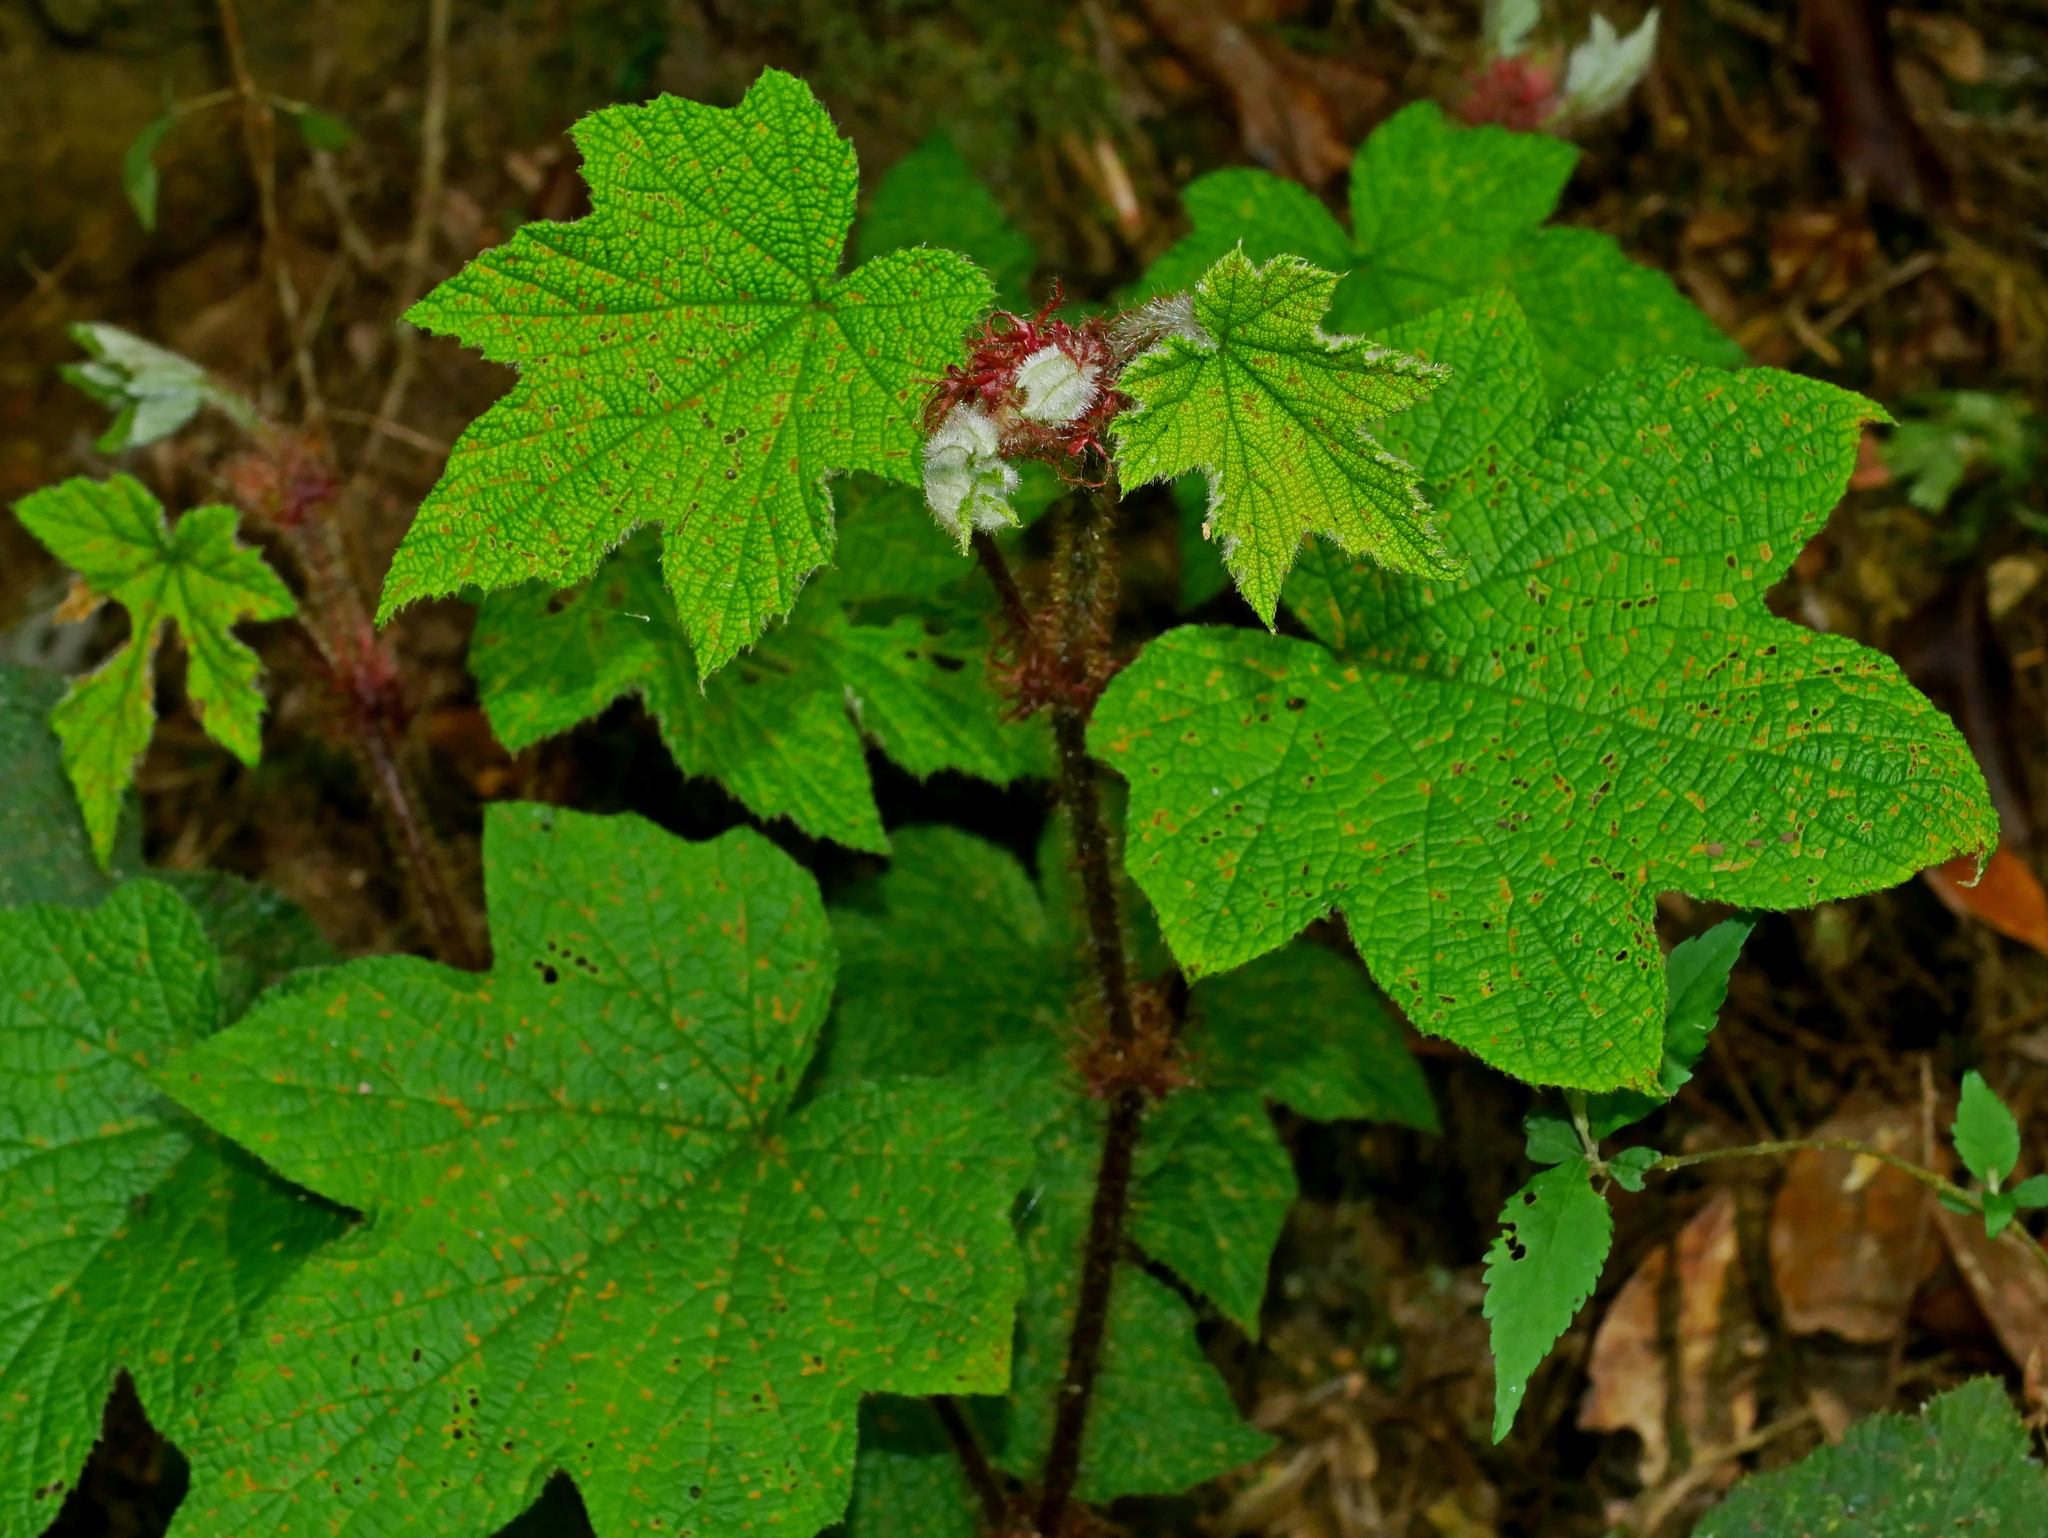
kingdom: Plantae
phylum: Tracheophyta
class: Magnoliopsida
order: Rosales
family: Rosaceae
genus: Rubus
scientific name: Rubus rufus
